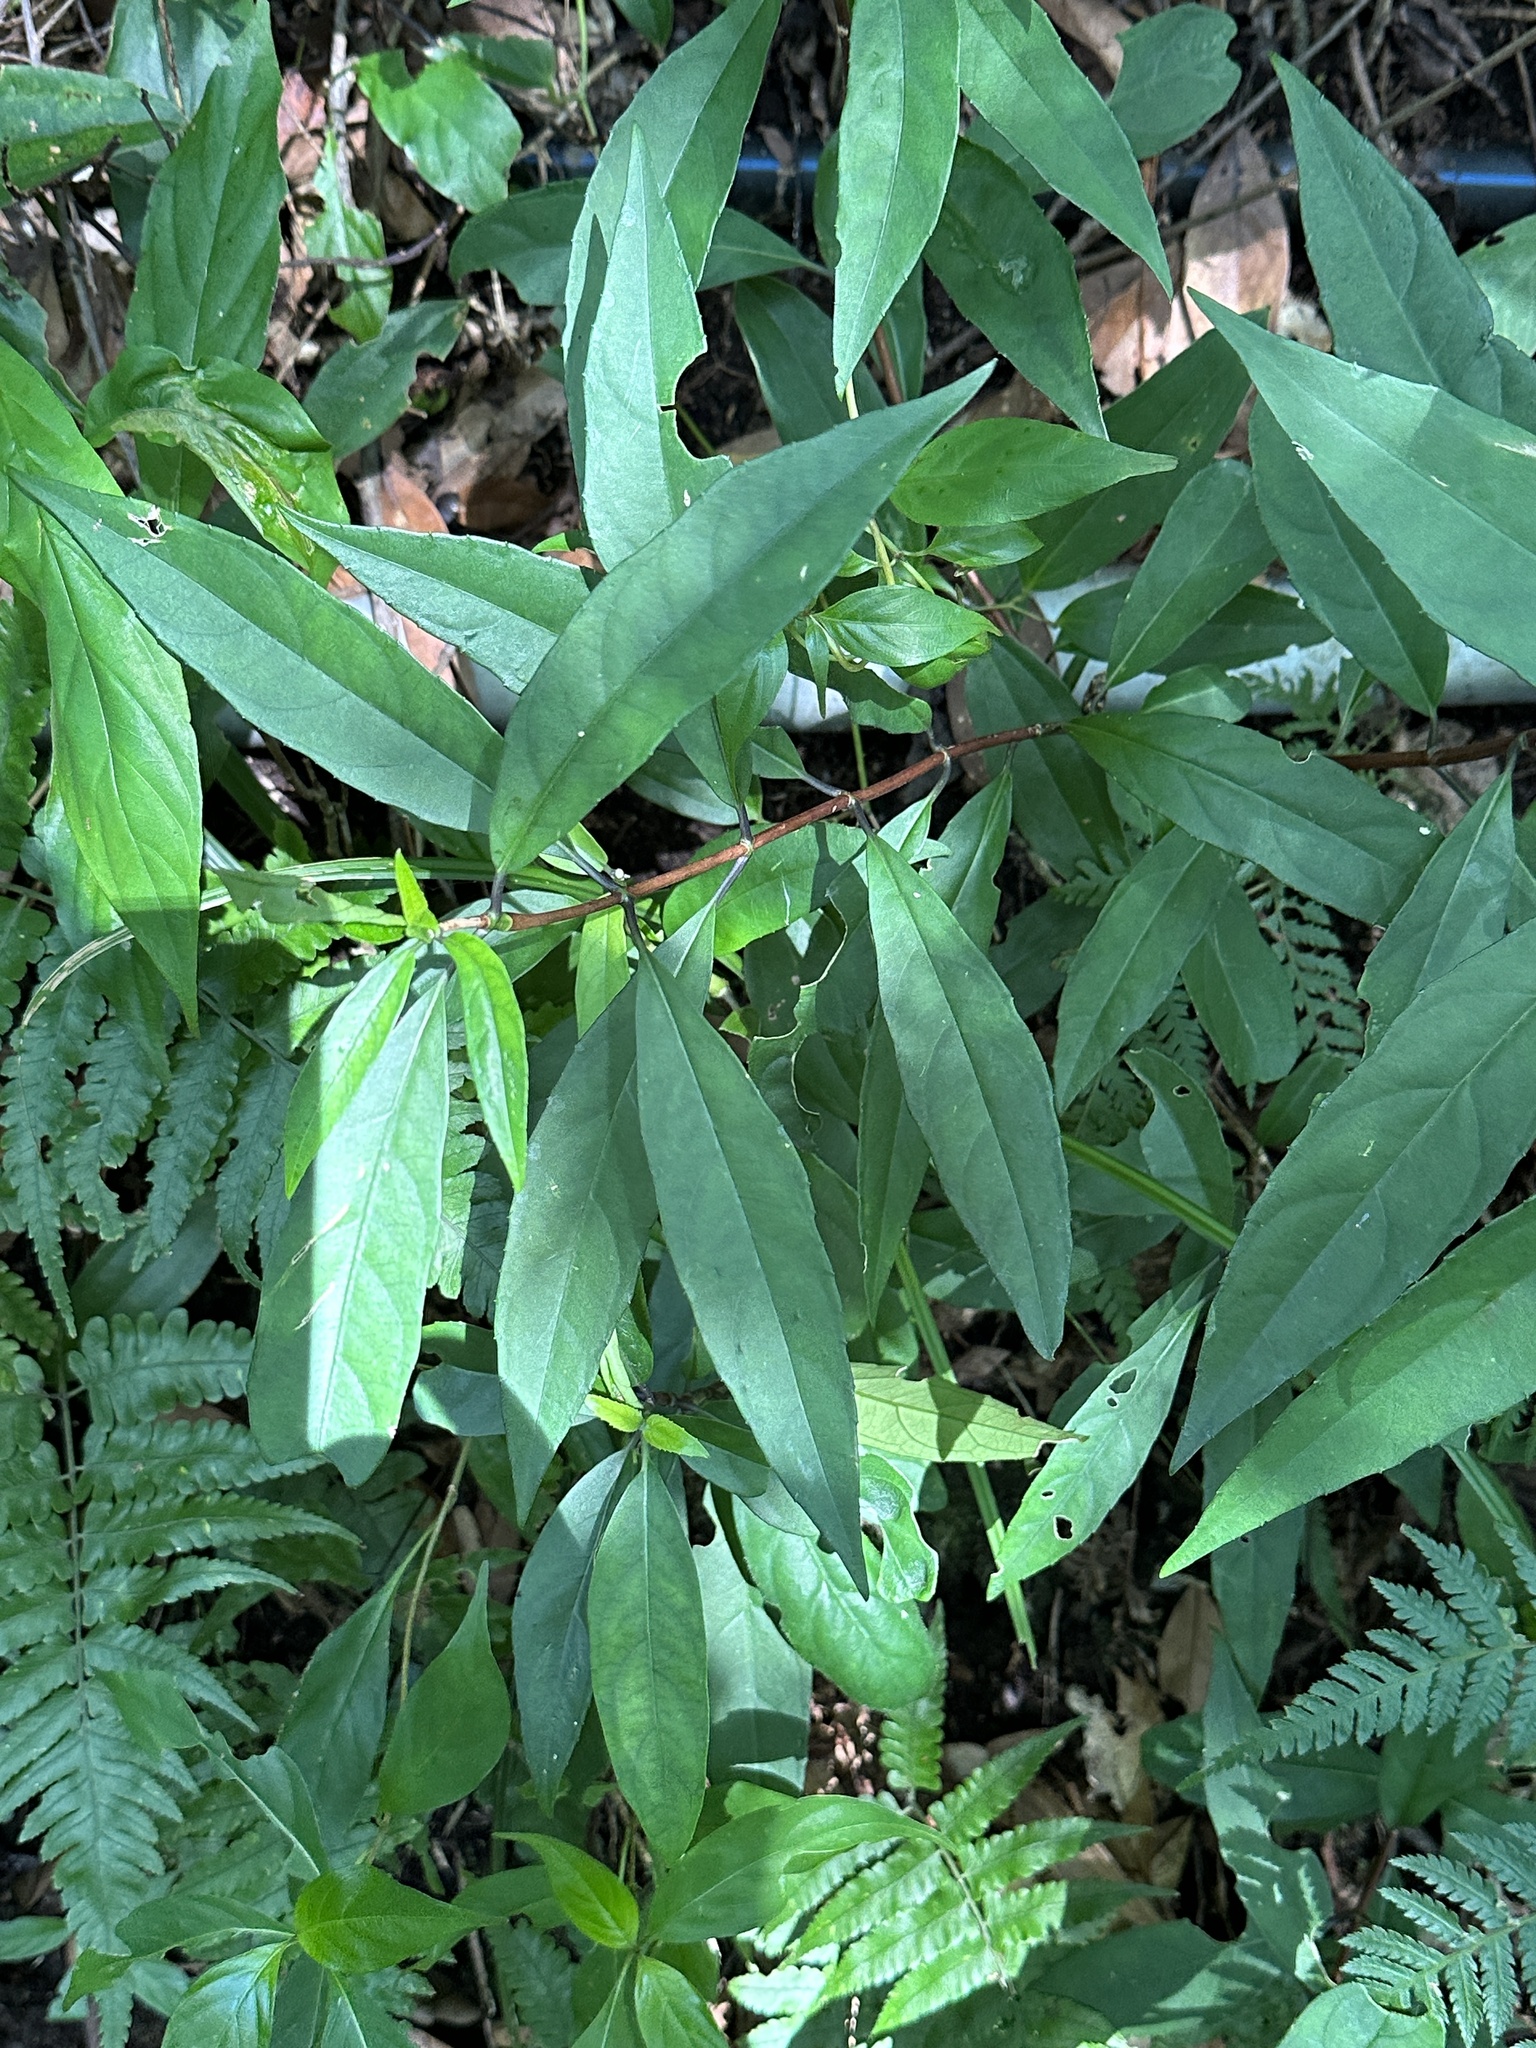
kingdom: Plantae
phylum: Tracheophyta
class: Magnoliopsida
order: Cornales
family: Hydrangeaceae
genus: Hydrangea
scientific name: Hydrangea chinensis
